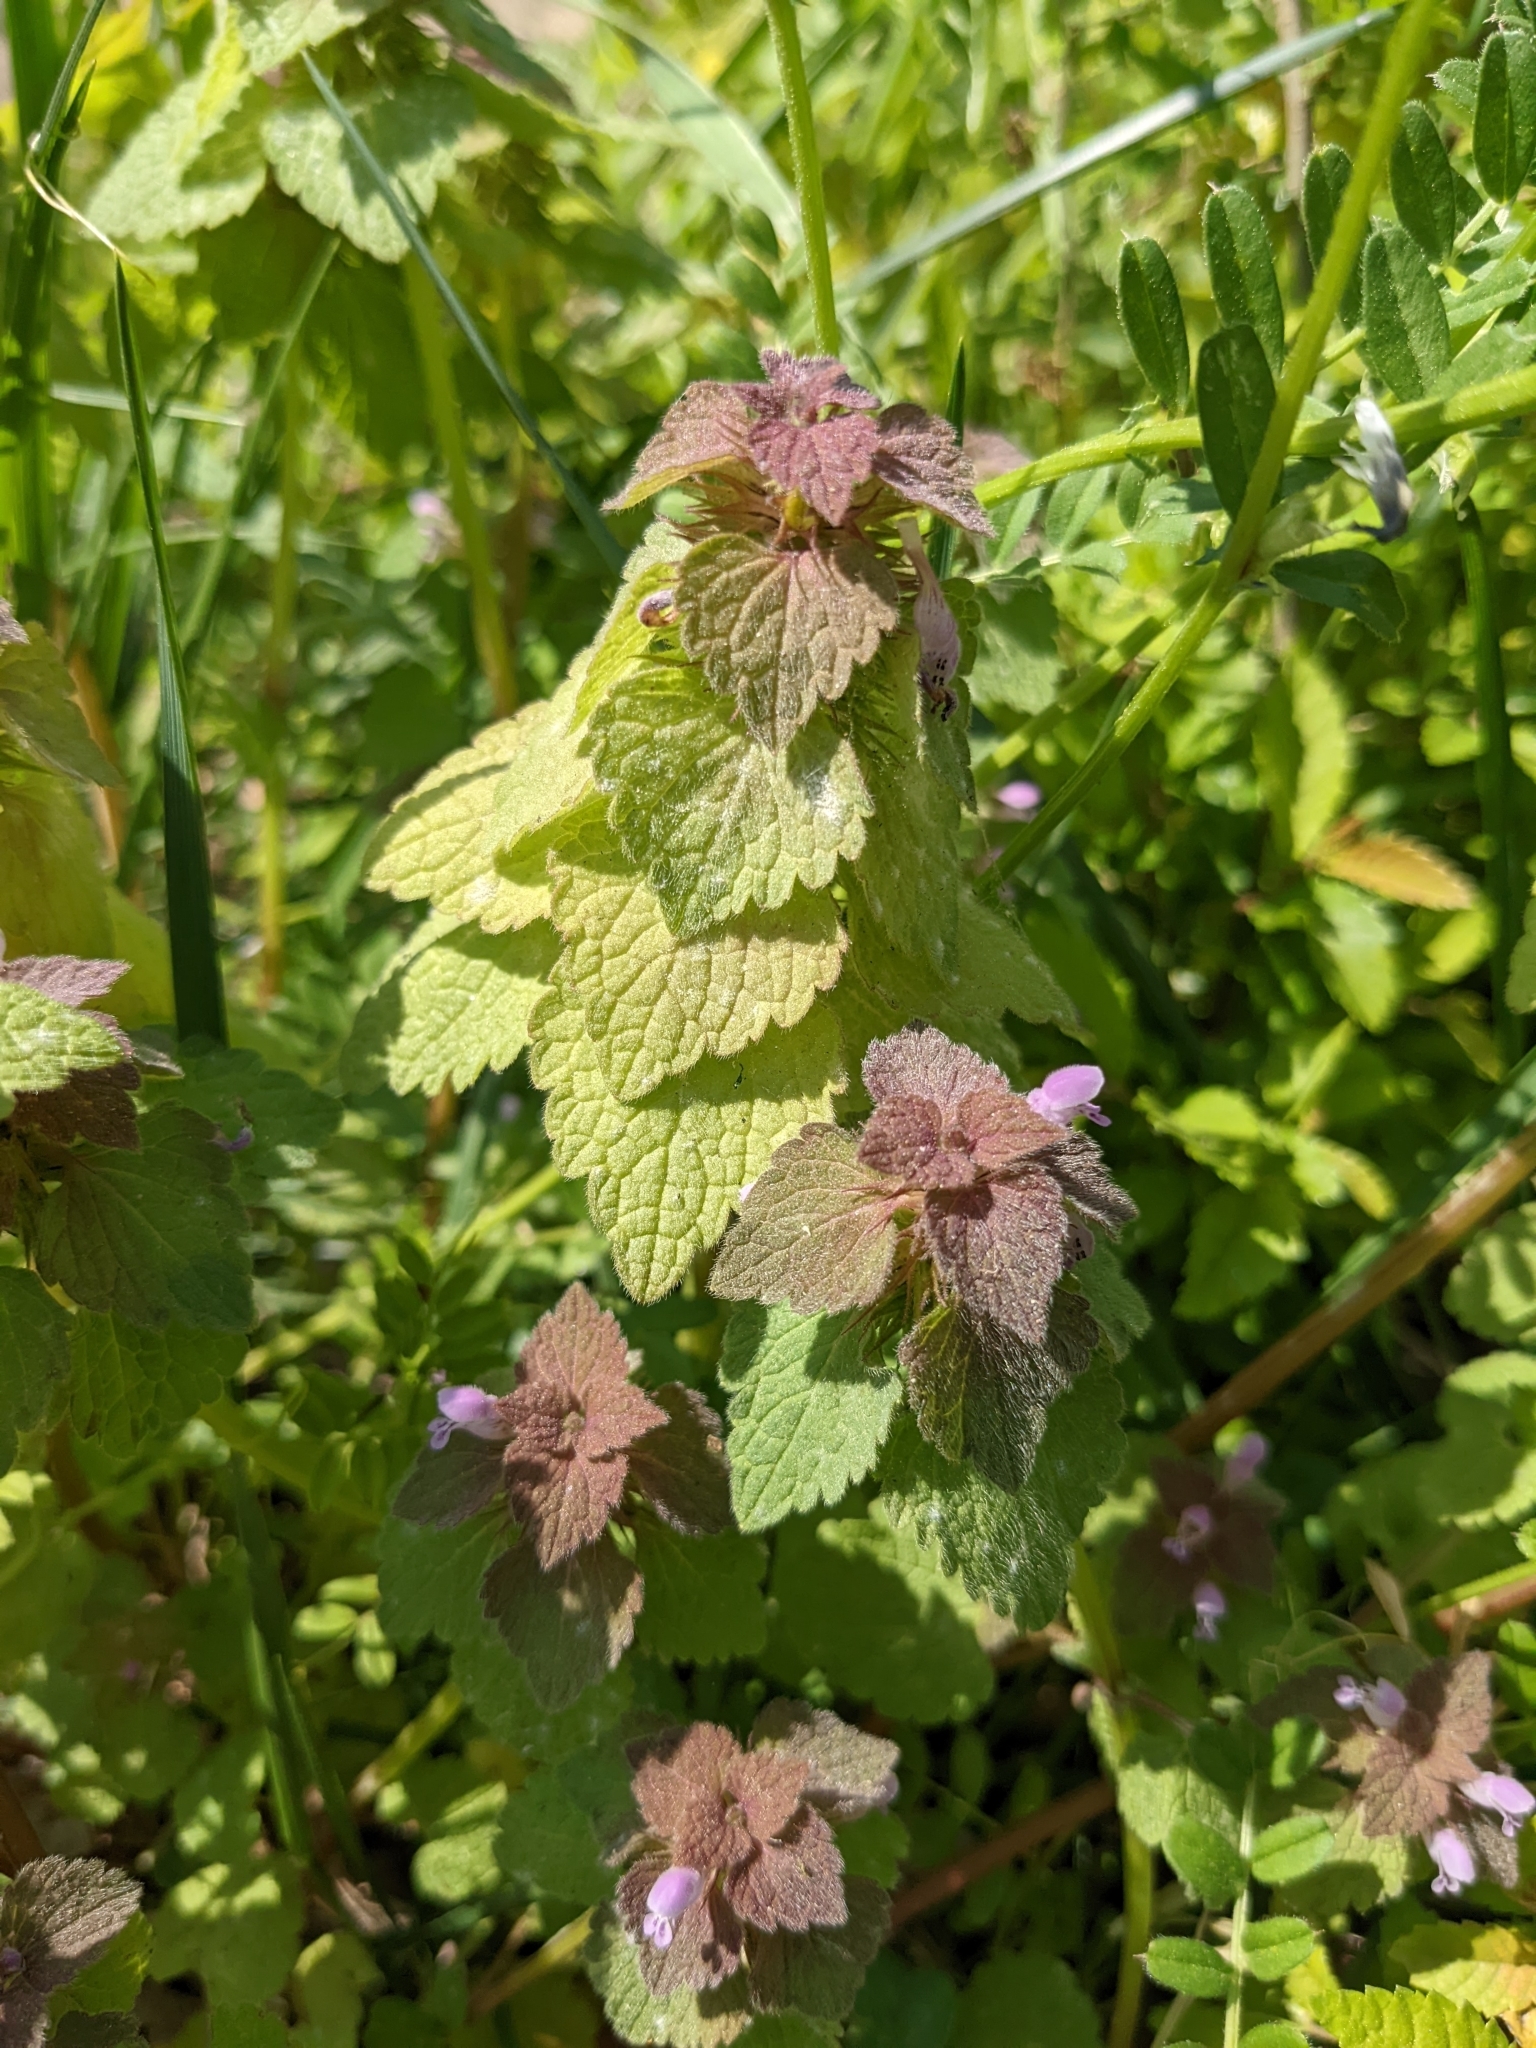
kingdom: Plantae
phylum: Tracheophyta
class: Magnoliopsida
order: Lamiales
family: Lamiaceae
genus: Lamium
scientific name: Lamium purpureum
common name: Red dead-nettle
